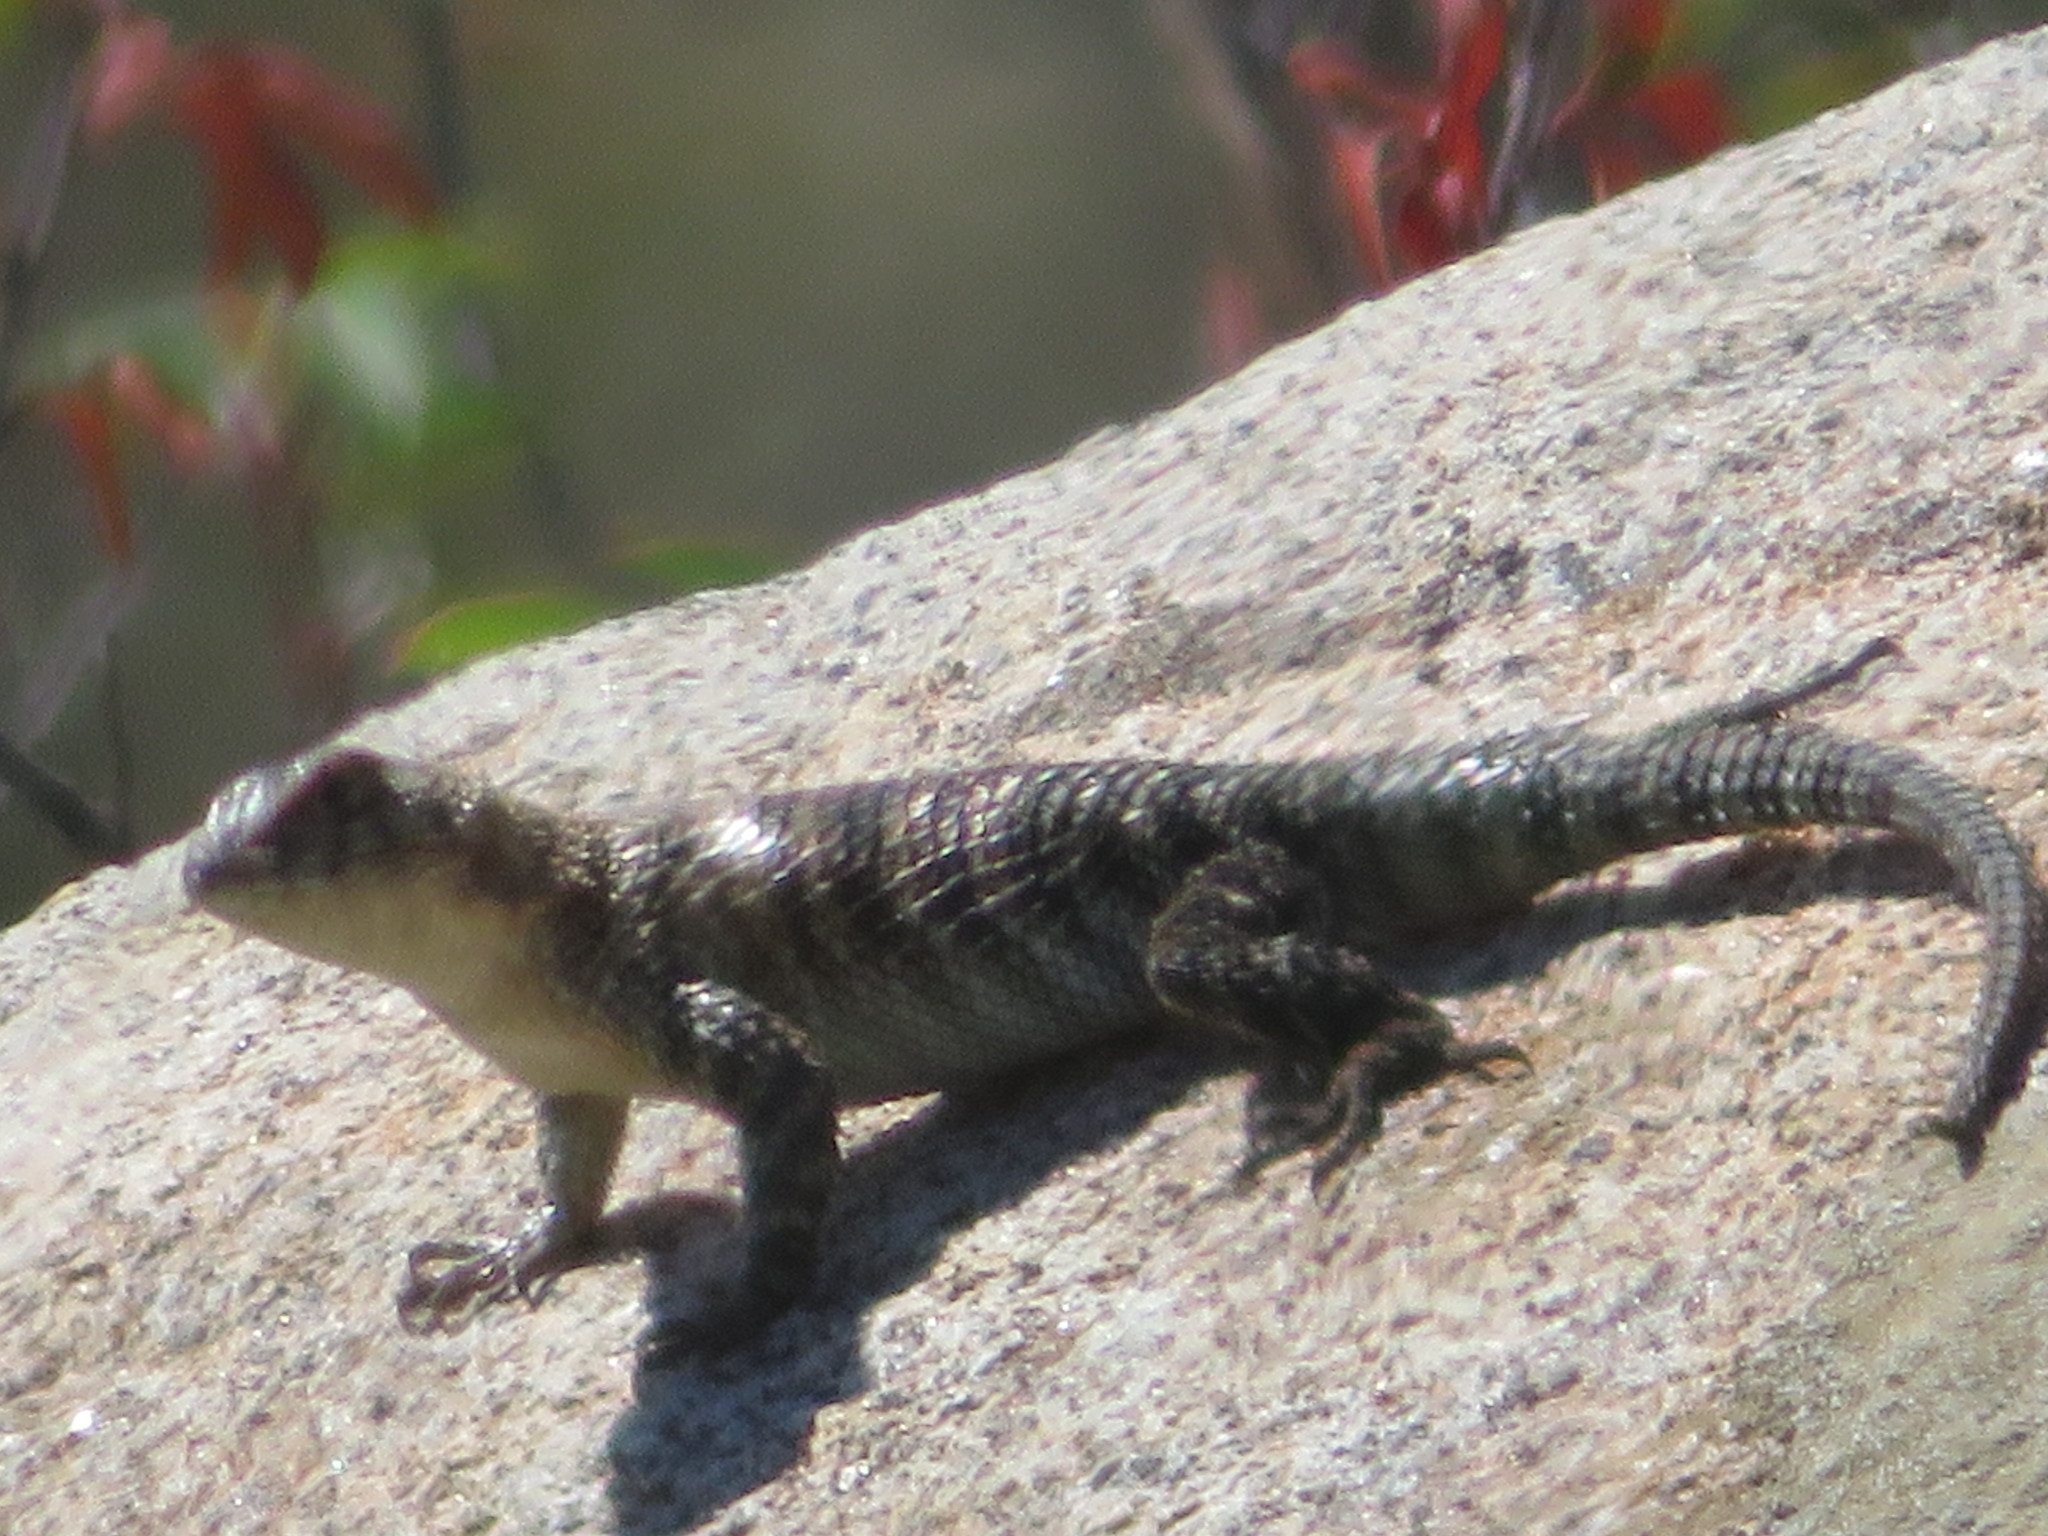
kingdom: Animalia
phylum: Chordata
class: Squamata
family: Phrynosomatidae
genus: Sceloporus
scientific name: Sceloporus orcutti
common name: Granite spiny lizard
